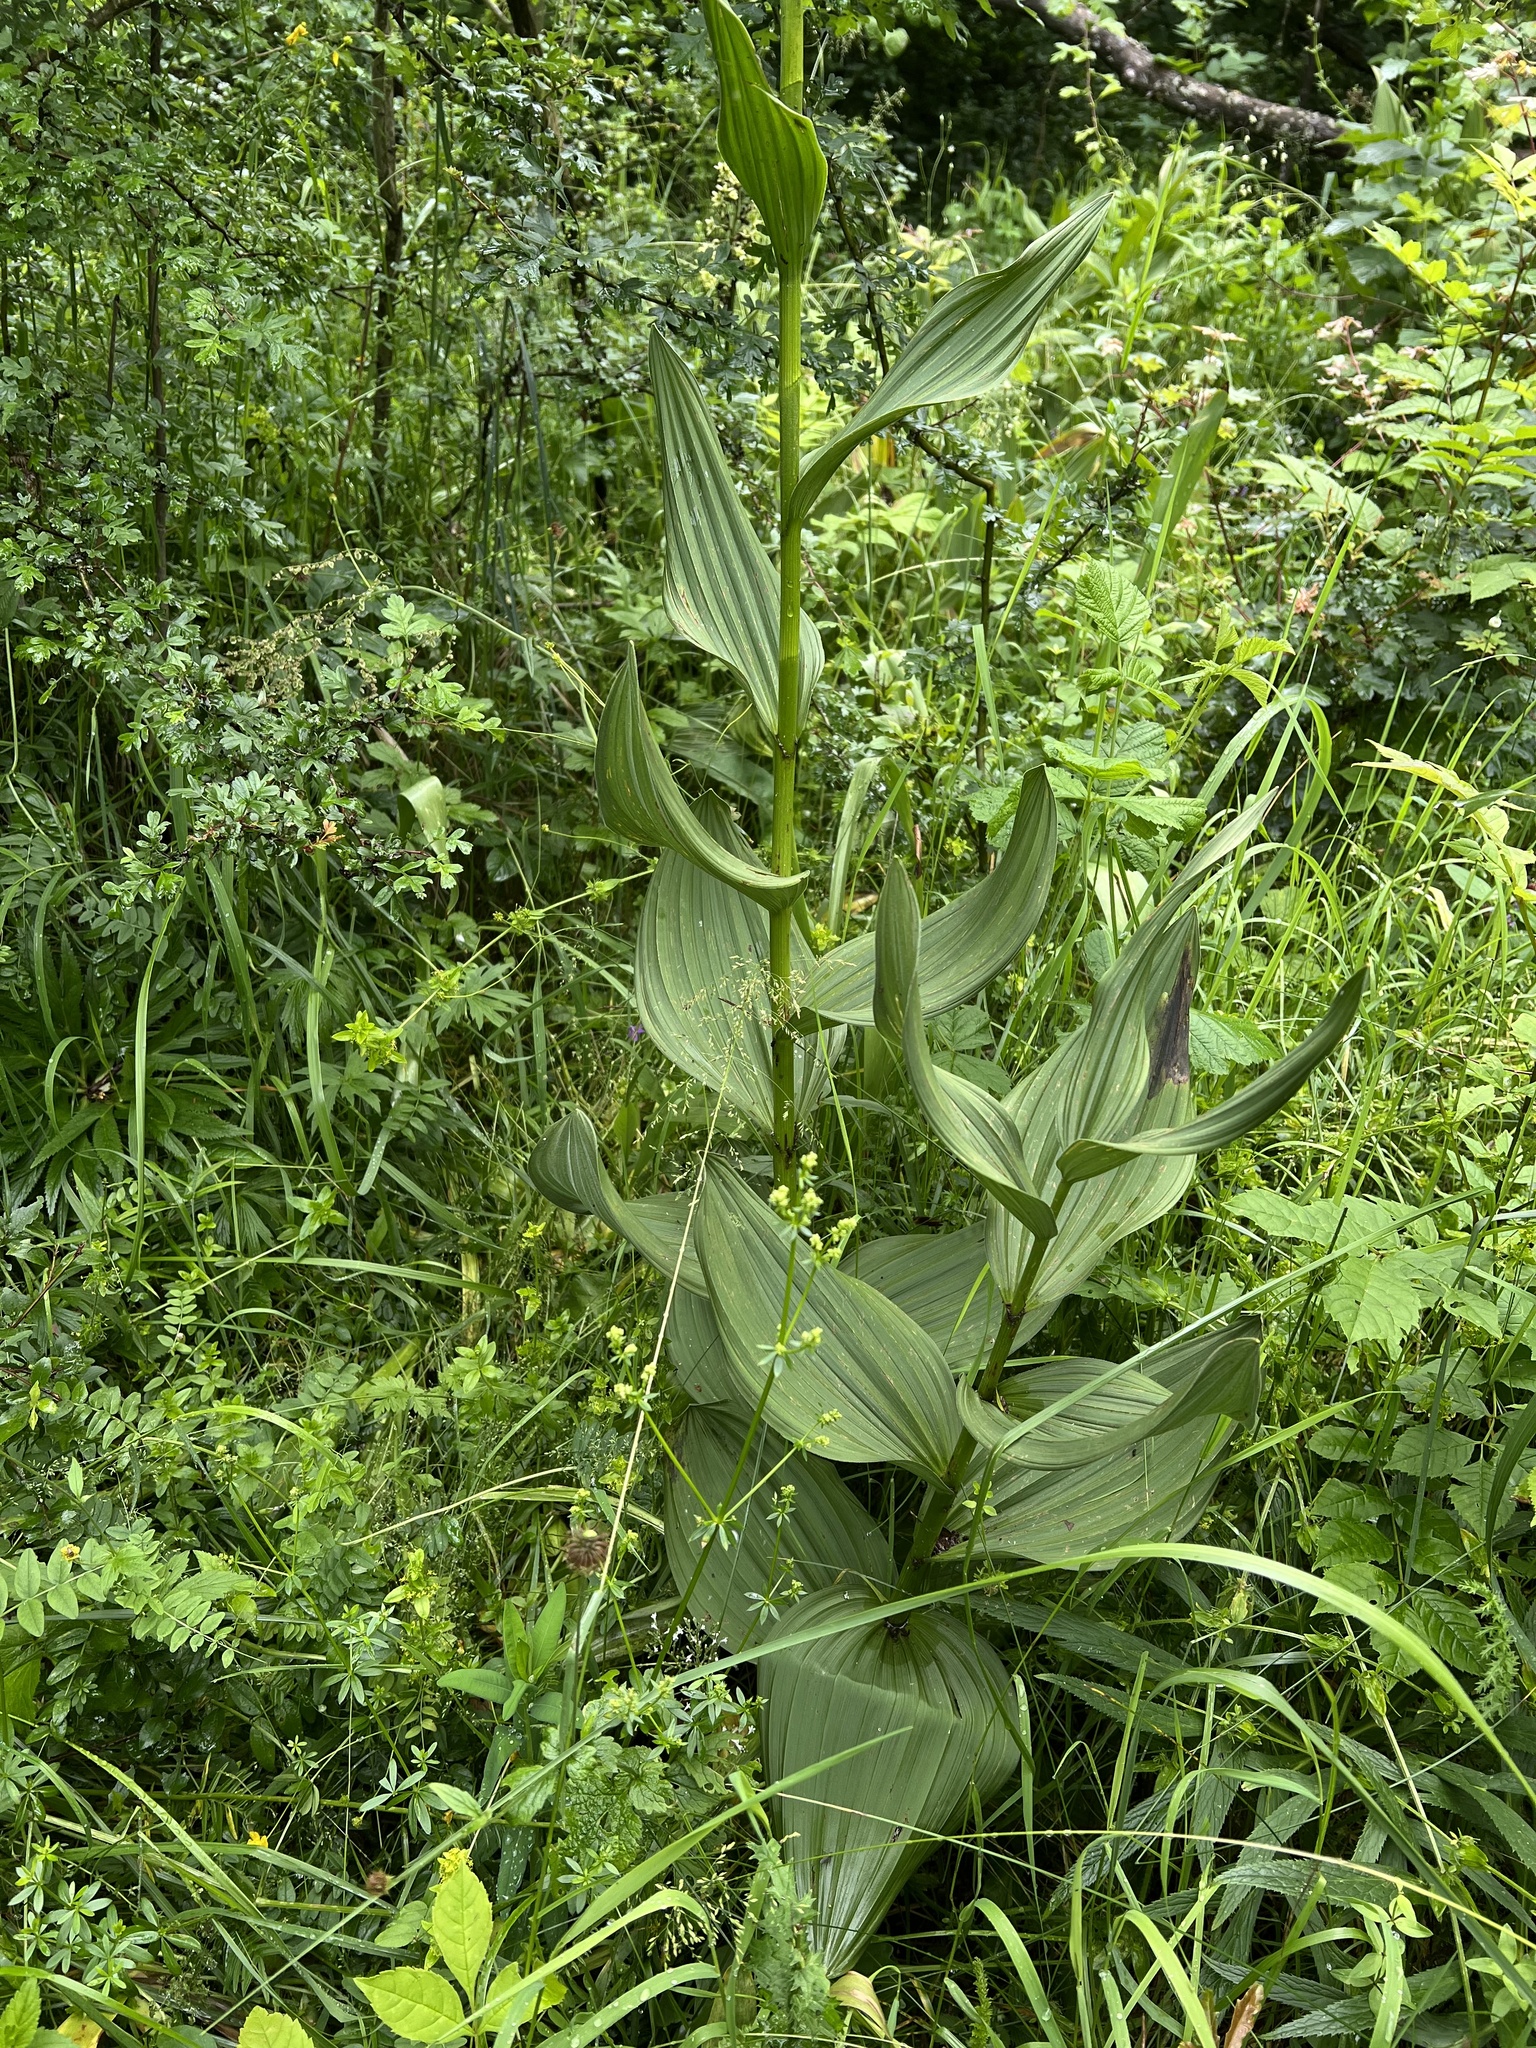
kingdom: Plantae
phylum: Tracheophyta
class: Liliopsida
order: Liliales
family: Melanthiaceae
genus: Veratrum
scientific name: Veratrum album
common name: White veratrum
